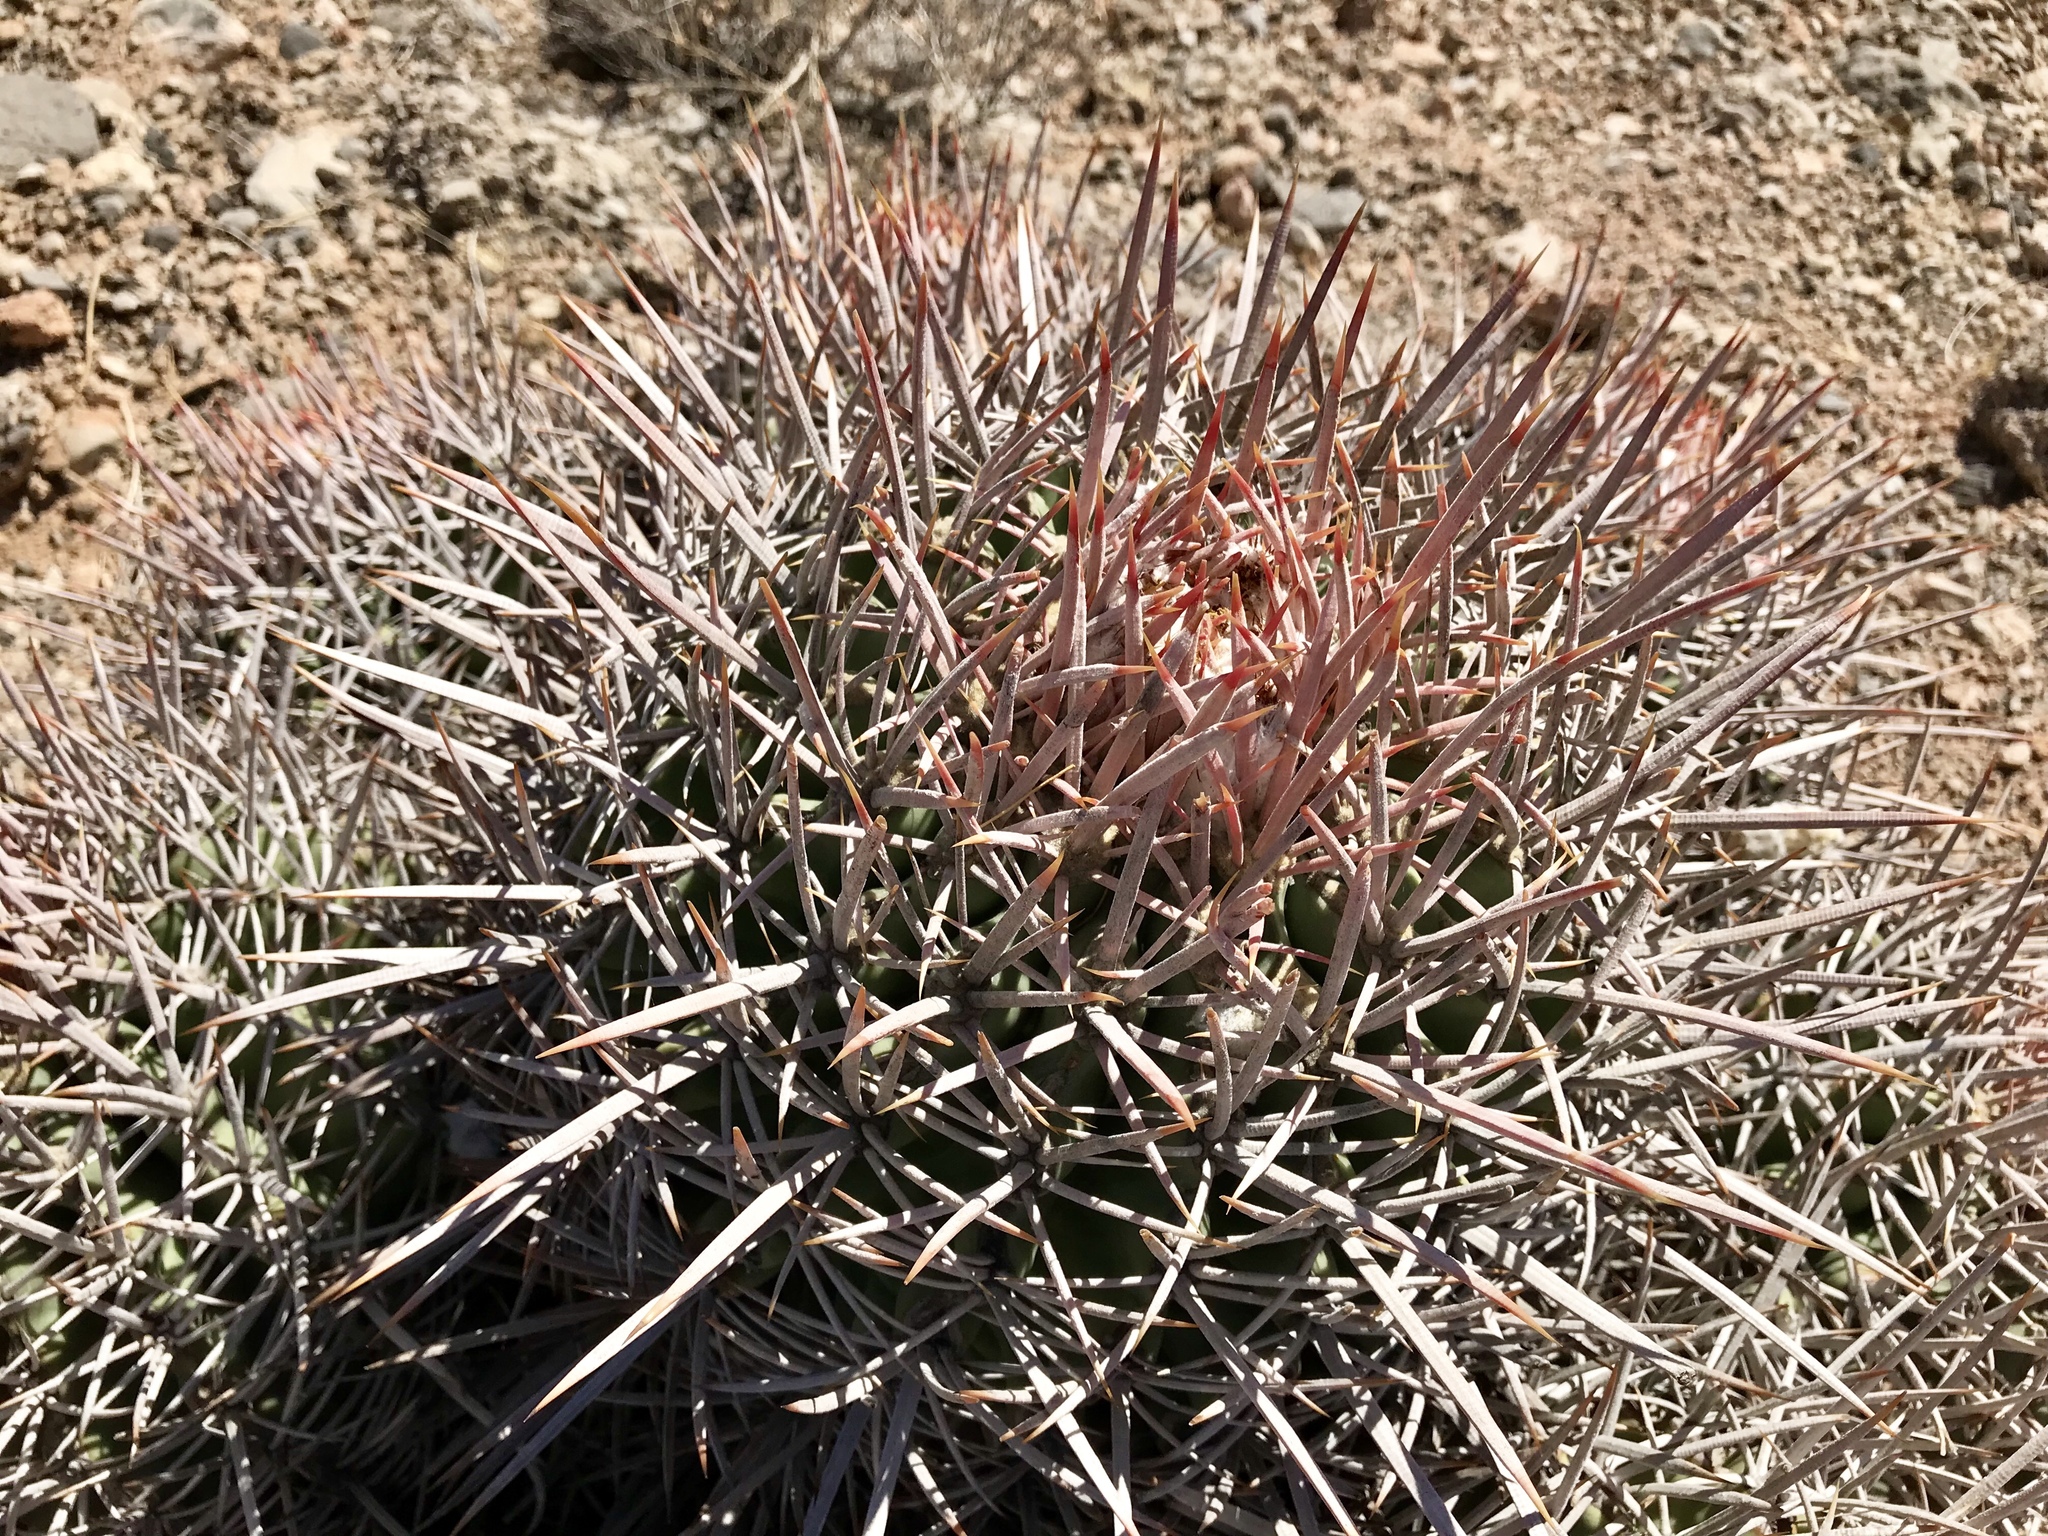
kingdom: Plantae
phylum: Tracheophyta
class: Magnoliopsida
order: Caryophyllales
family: Cactaceae
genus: Echinocactus
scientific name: Echinocactus polycephalus
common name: Cottontop cactus
